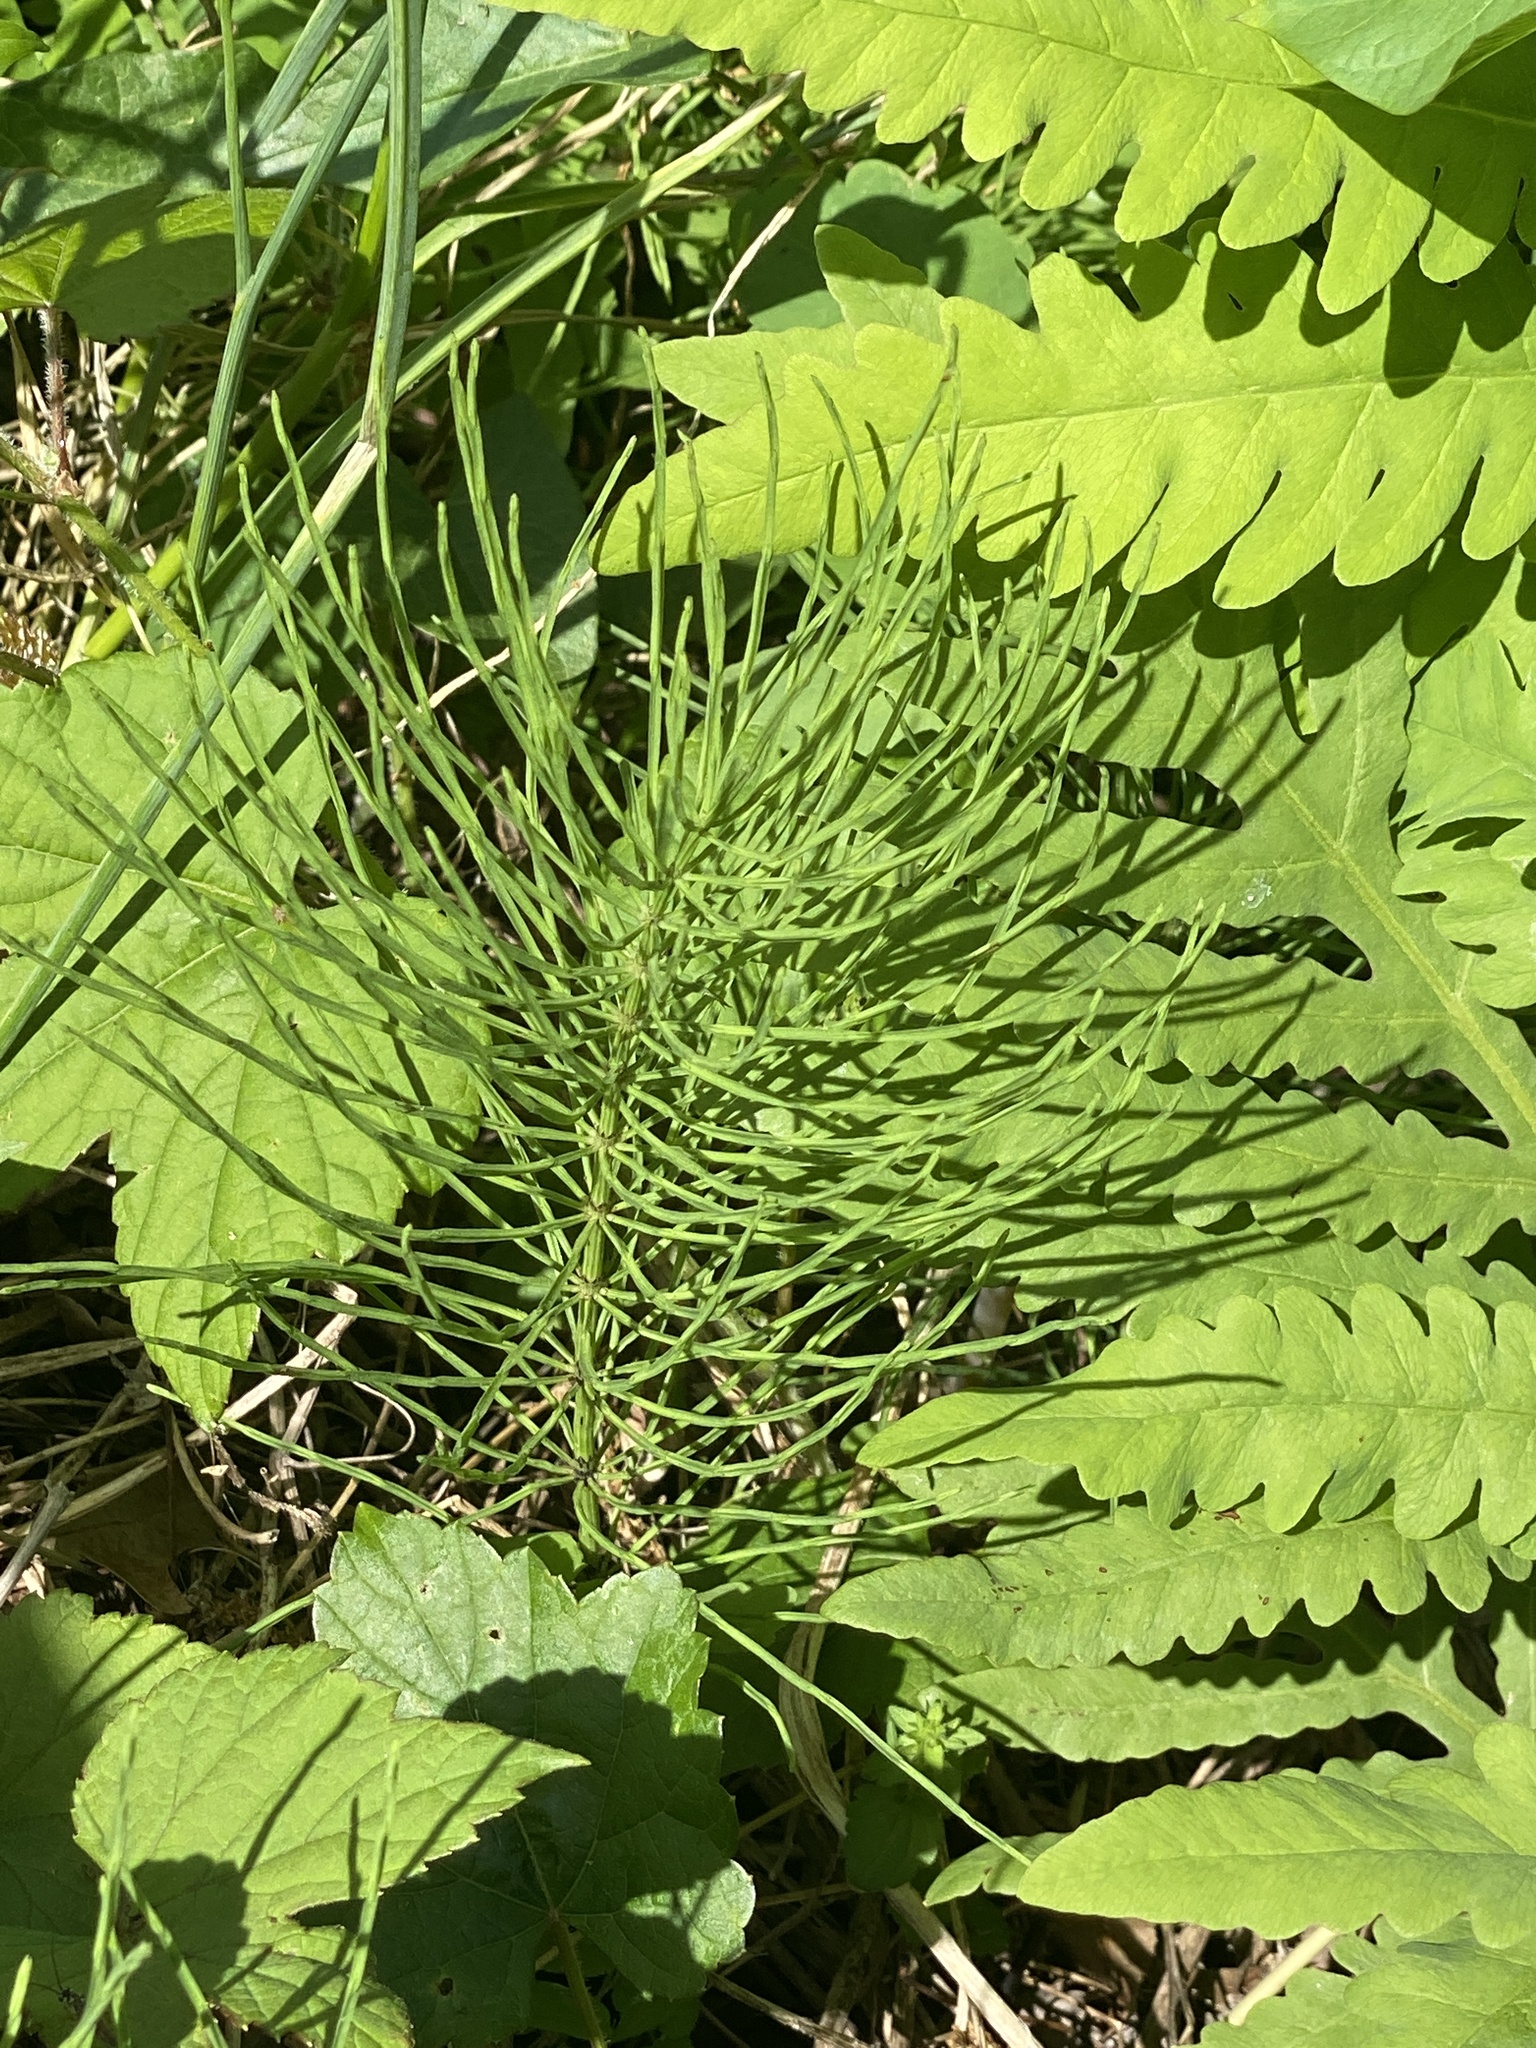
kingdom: Plantae
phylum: Tracheophyta
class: Polypodiopsida
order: Equisetales
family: Equisetaceae
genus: Equisetum
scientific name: Equisetum arvense
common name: Field horsetail
